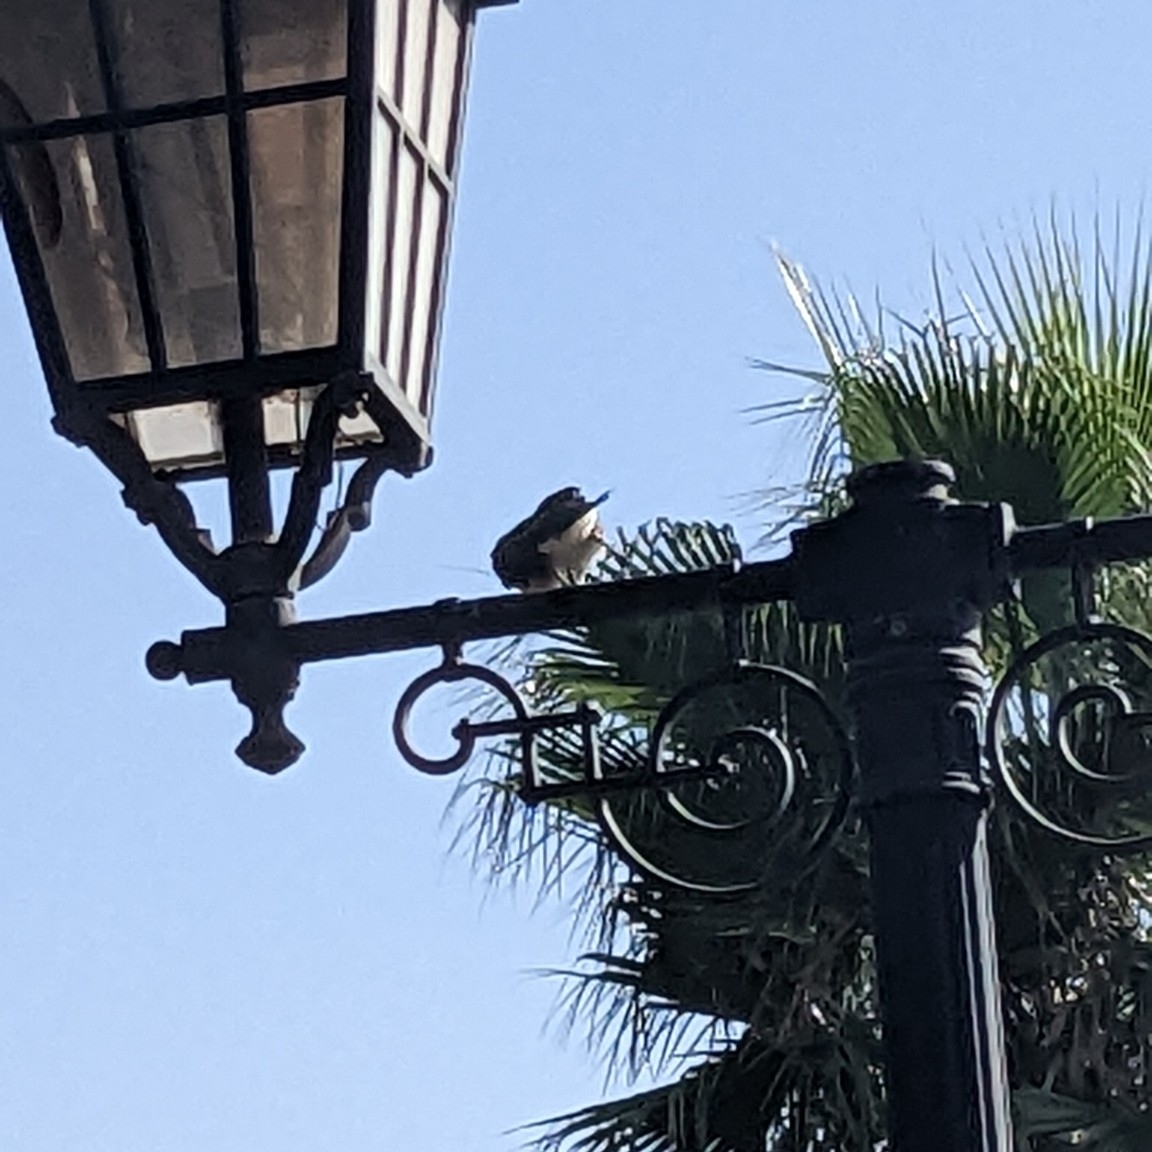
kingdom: Animalia
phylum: Chordata
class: Aves
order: Passeriformes
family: Pycnonotidae
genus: Pycnonotus
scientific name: Pycnonotus barbatus
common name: Common bulbul
